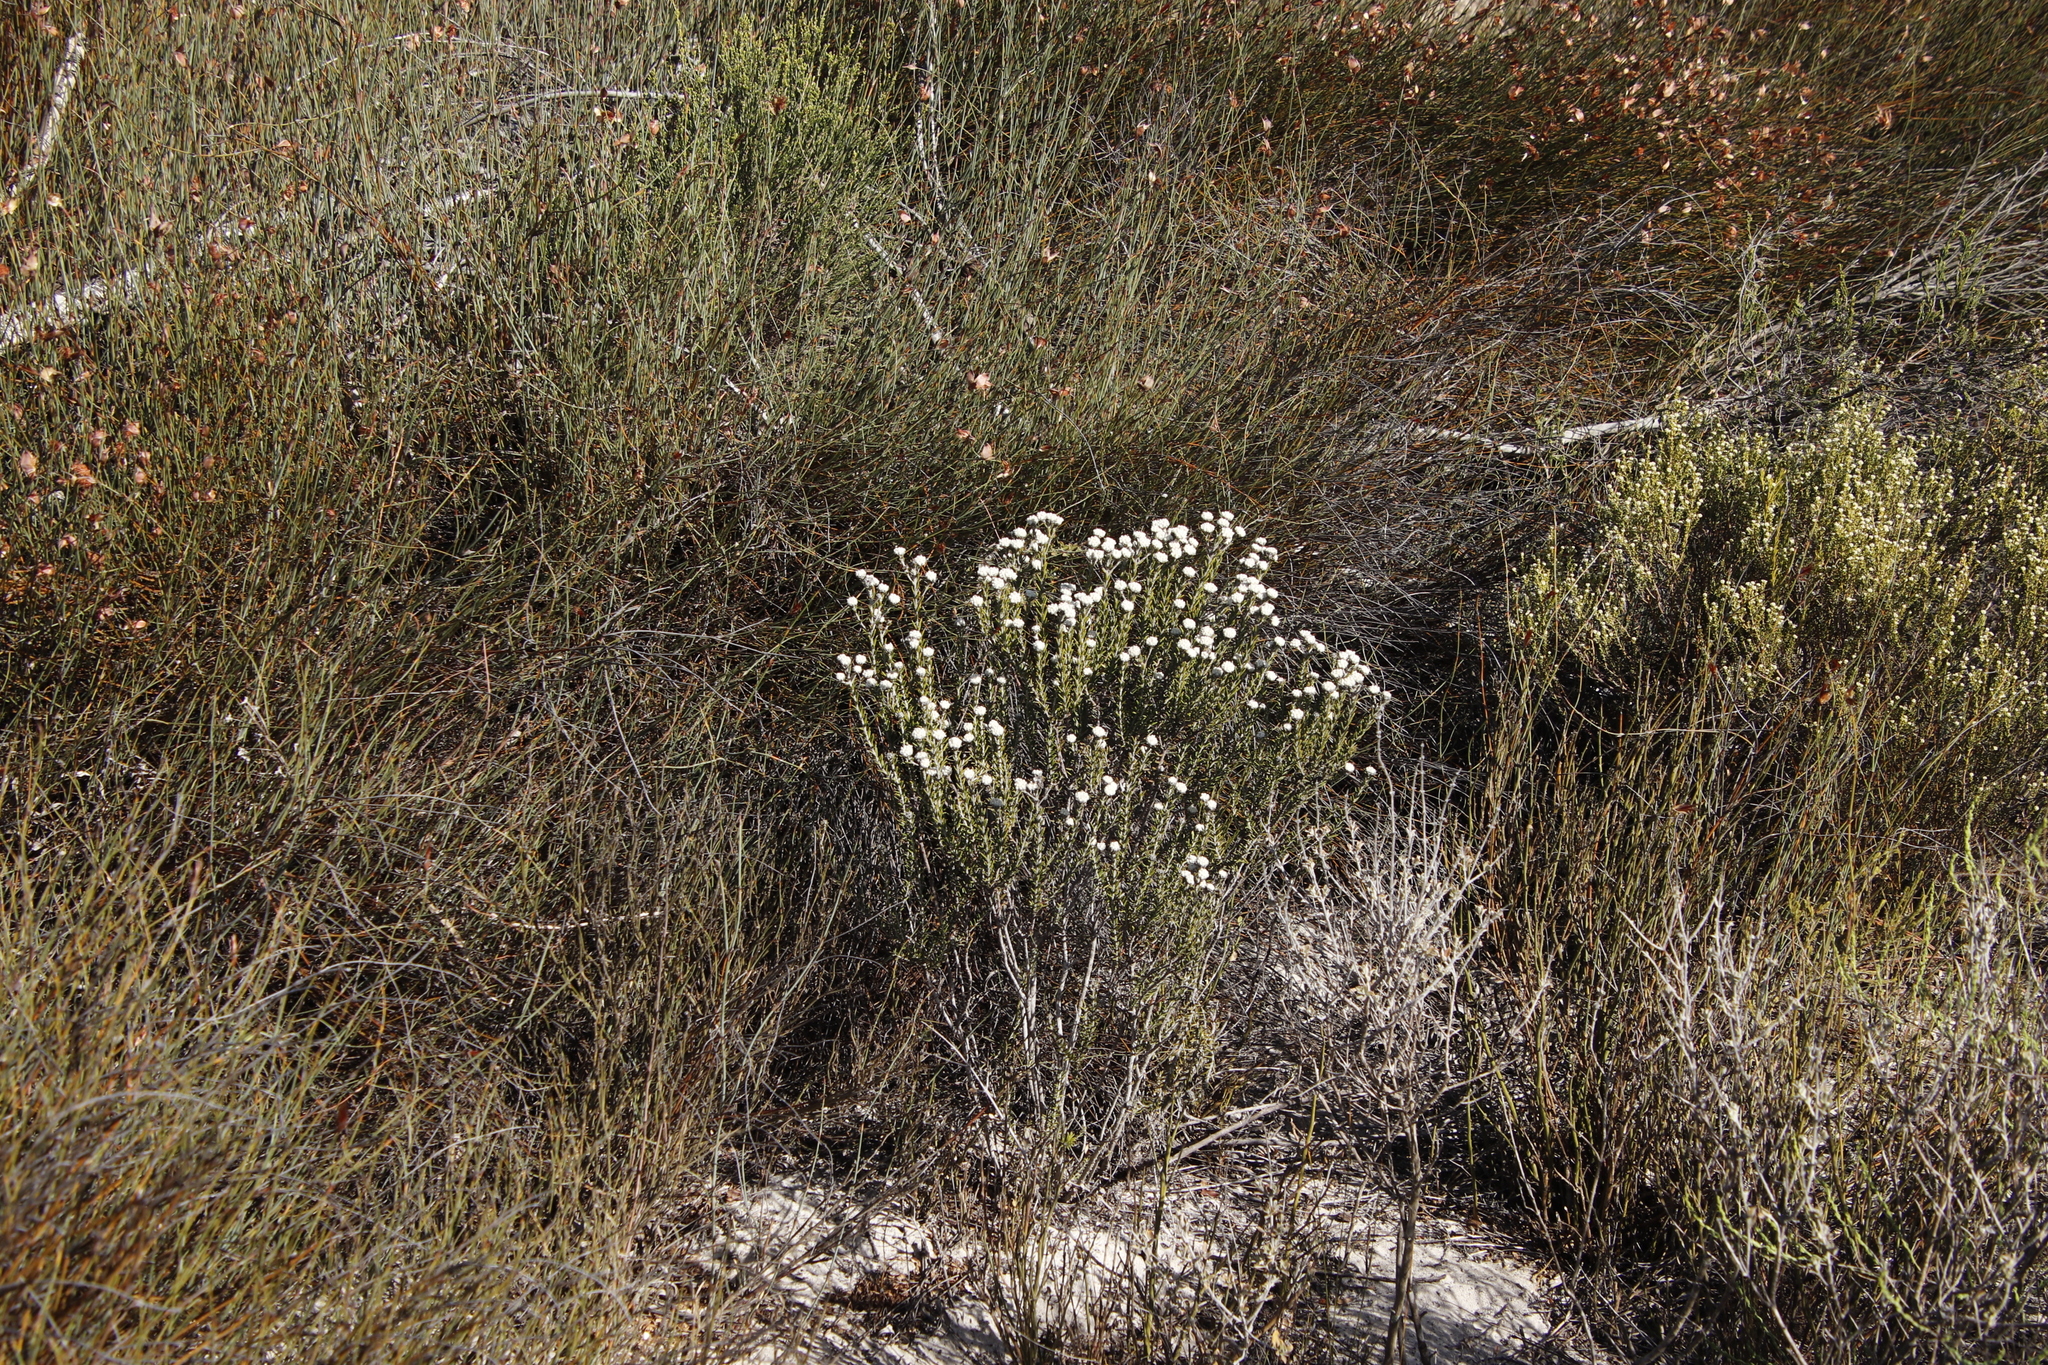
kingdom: Plantae
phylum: Tracheophyta
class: Magnoliopsida
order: Rosales
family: Rhamnaceae
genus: Trichocephalus
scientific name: Trichocephalus stipularis
